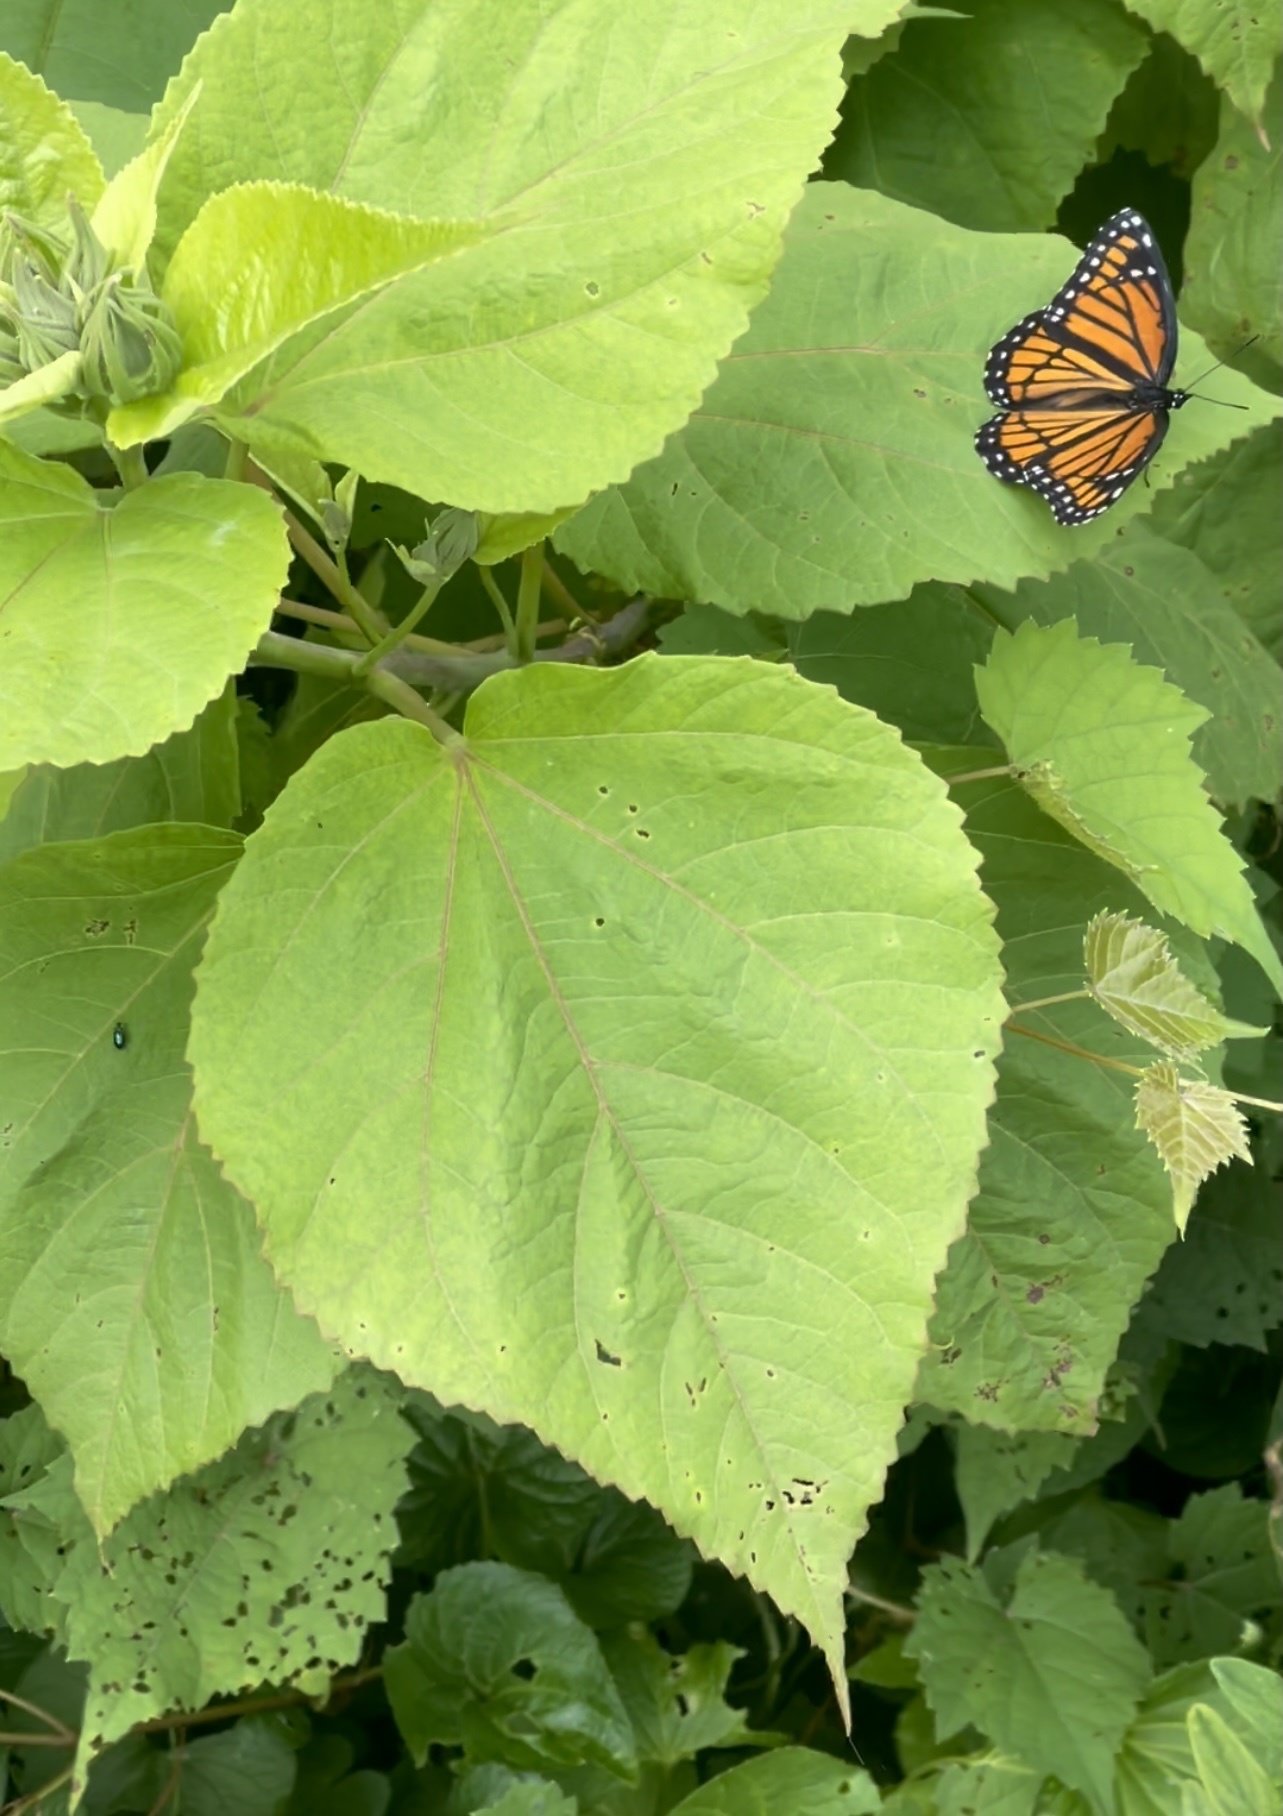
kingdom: Animalia
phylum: Arthropoda
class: Insecta
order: Lepidoptera
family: Nymphalidae
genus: Limenitis
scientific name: Limenitis archippus
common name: Viceroy
